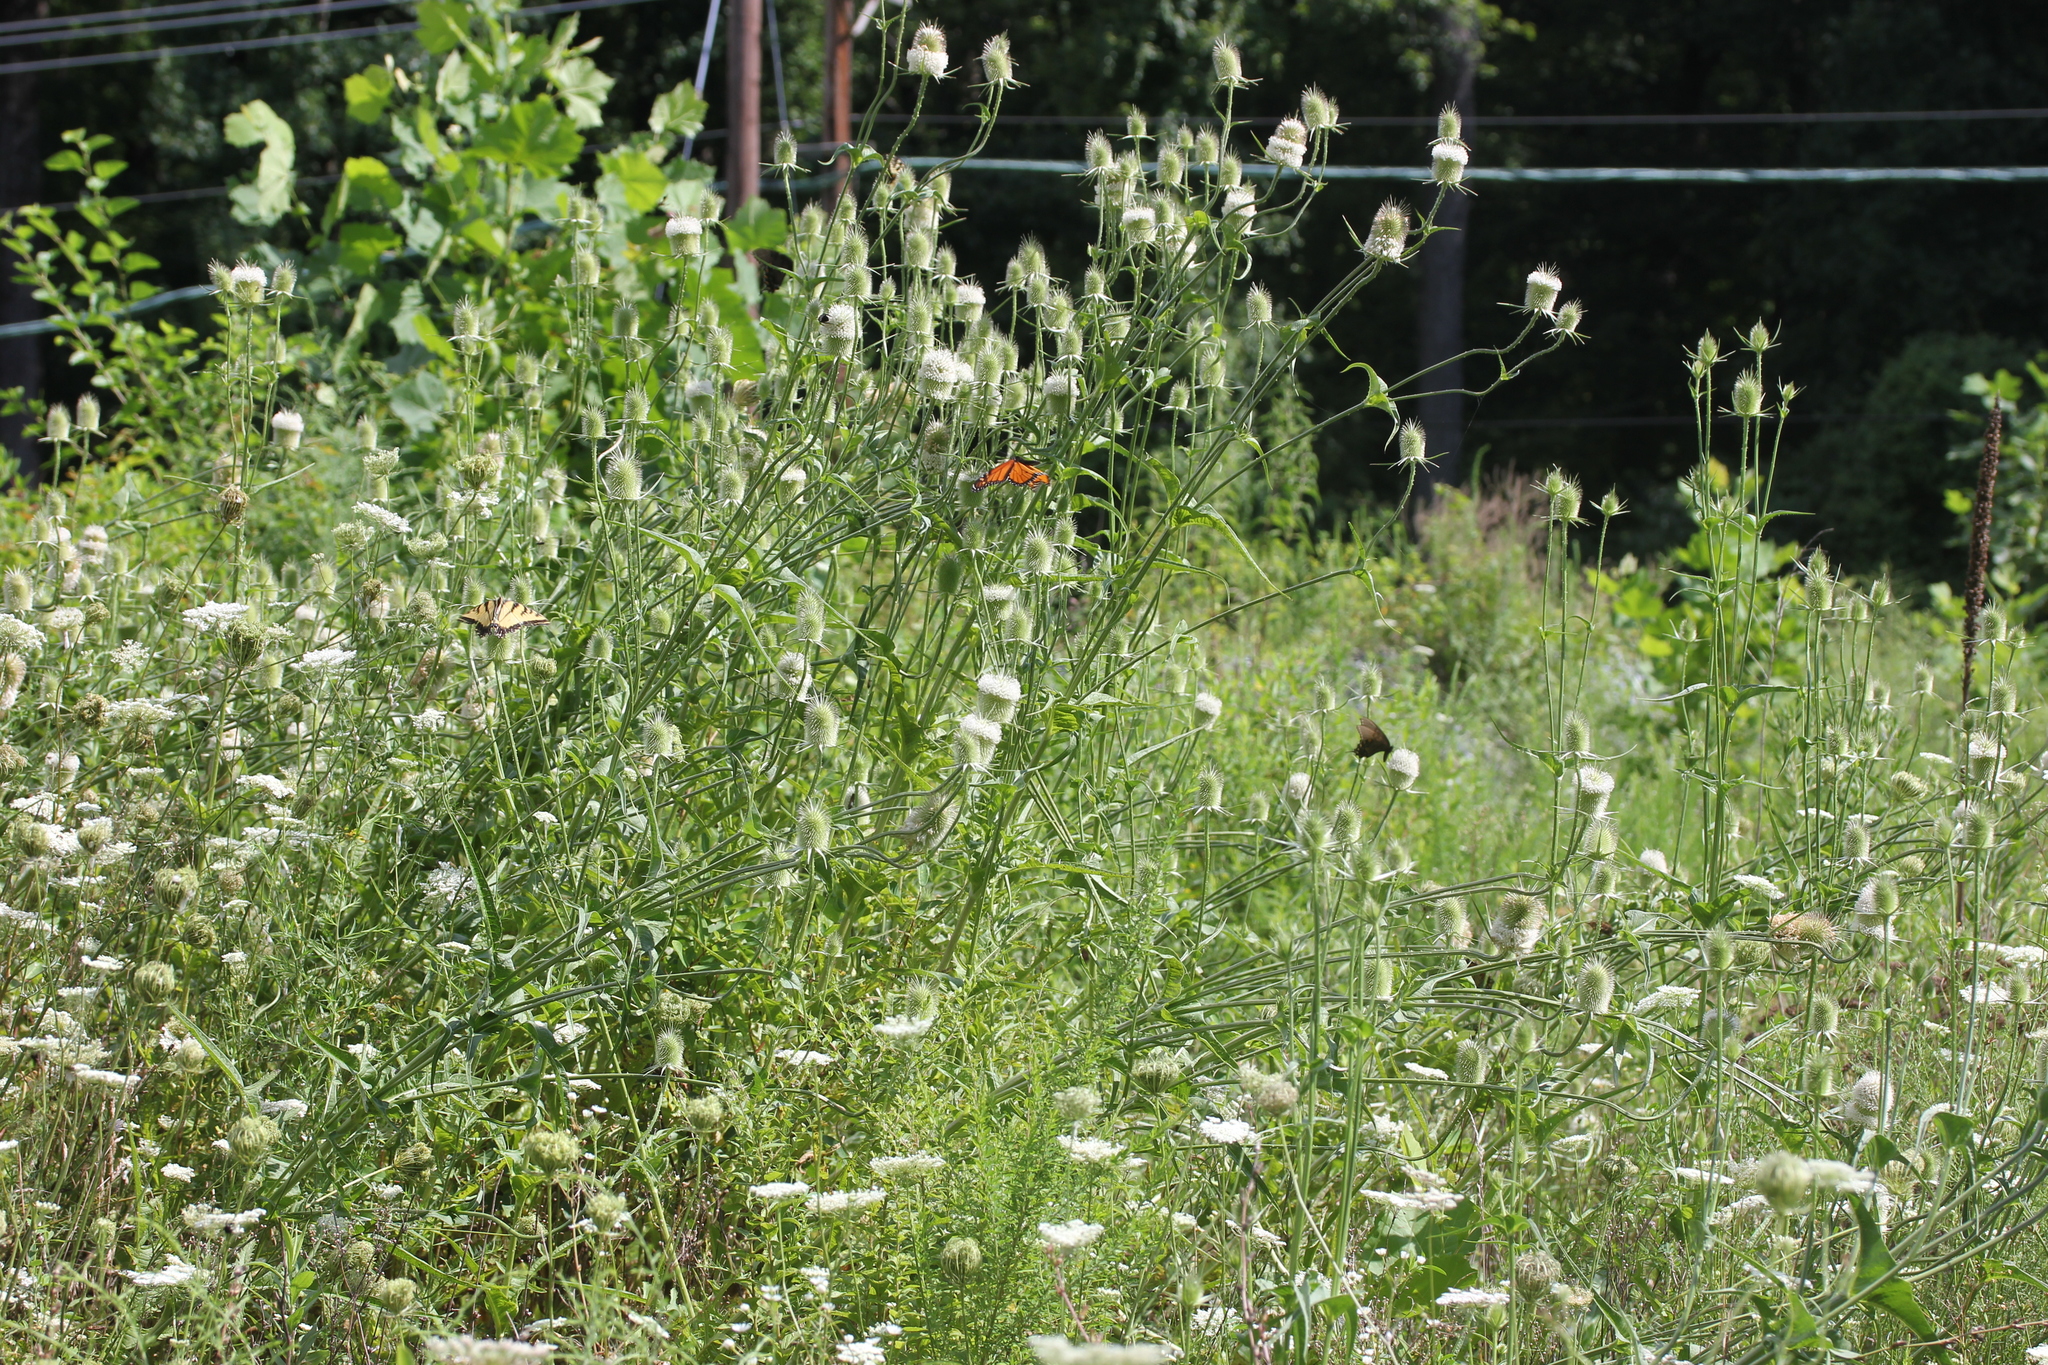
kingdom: Plantae
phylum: Tracheophyta
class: Magnoliopsida
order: Dipsacales
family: Caprifoliaceae
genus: Dipsacus
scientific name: Dipsacus laciniatus
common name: Cut-leaved teasel
